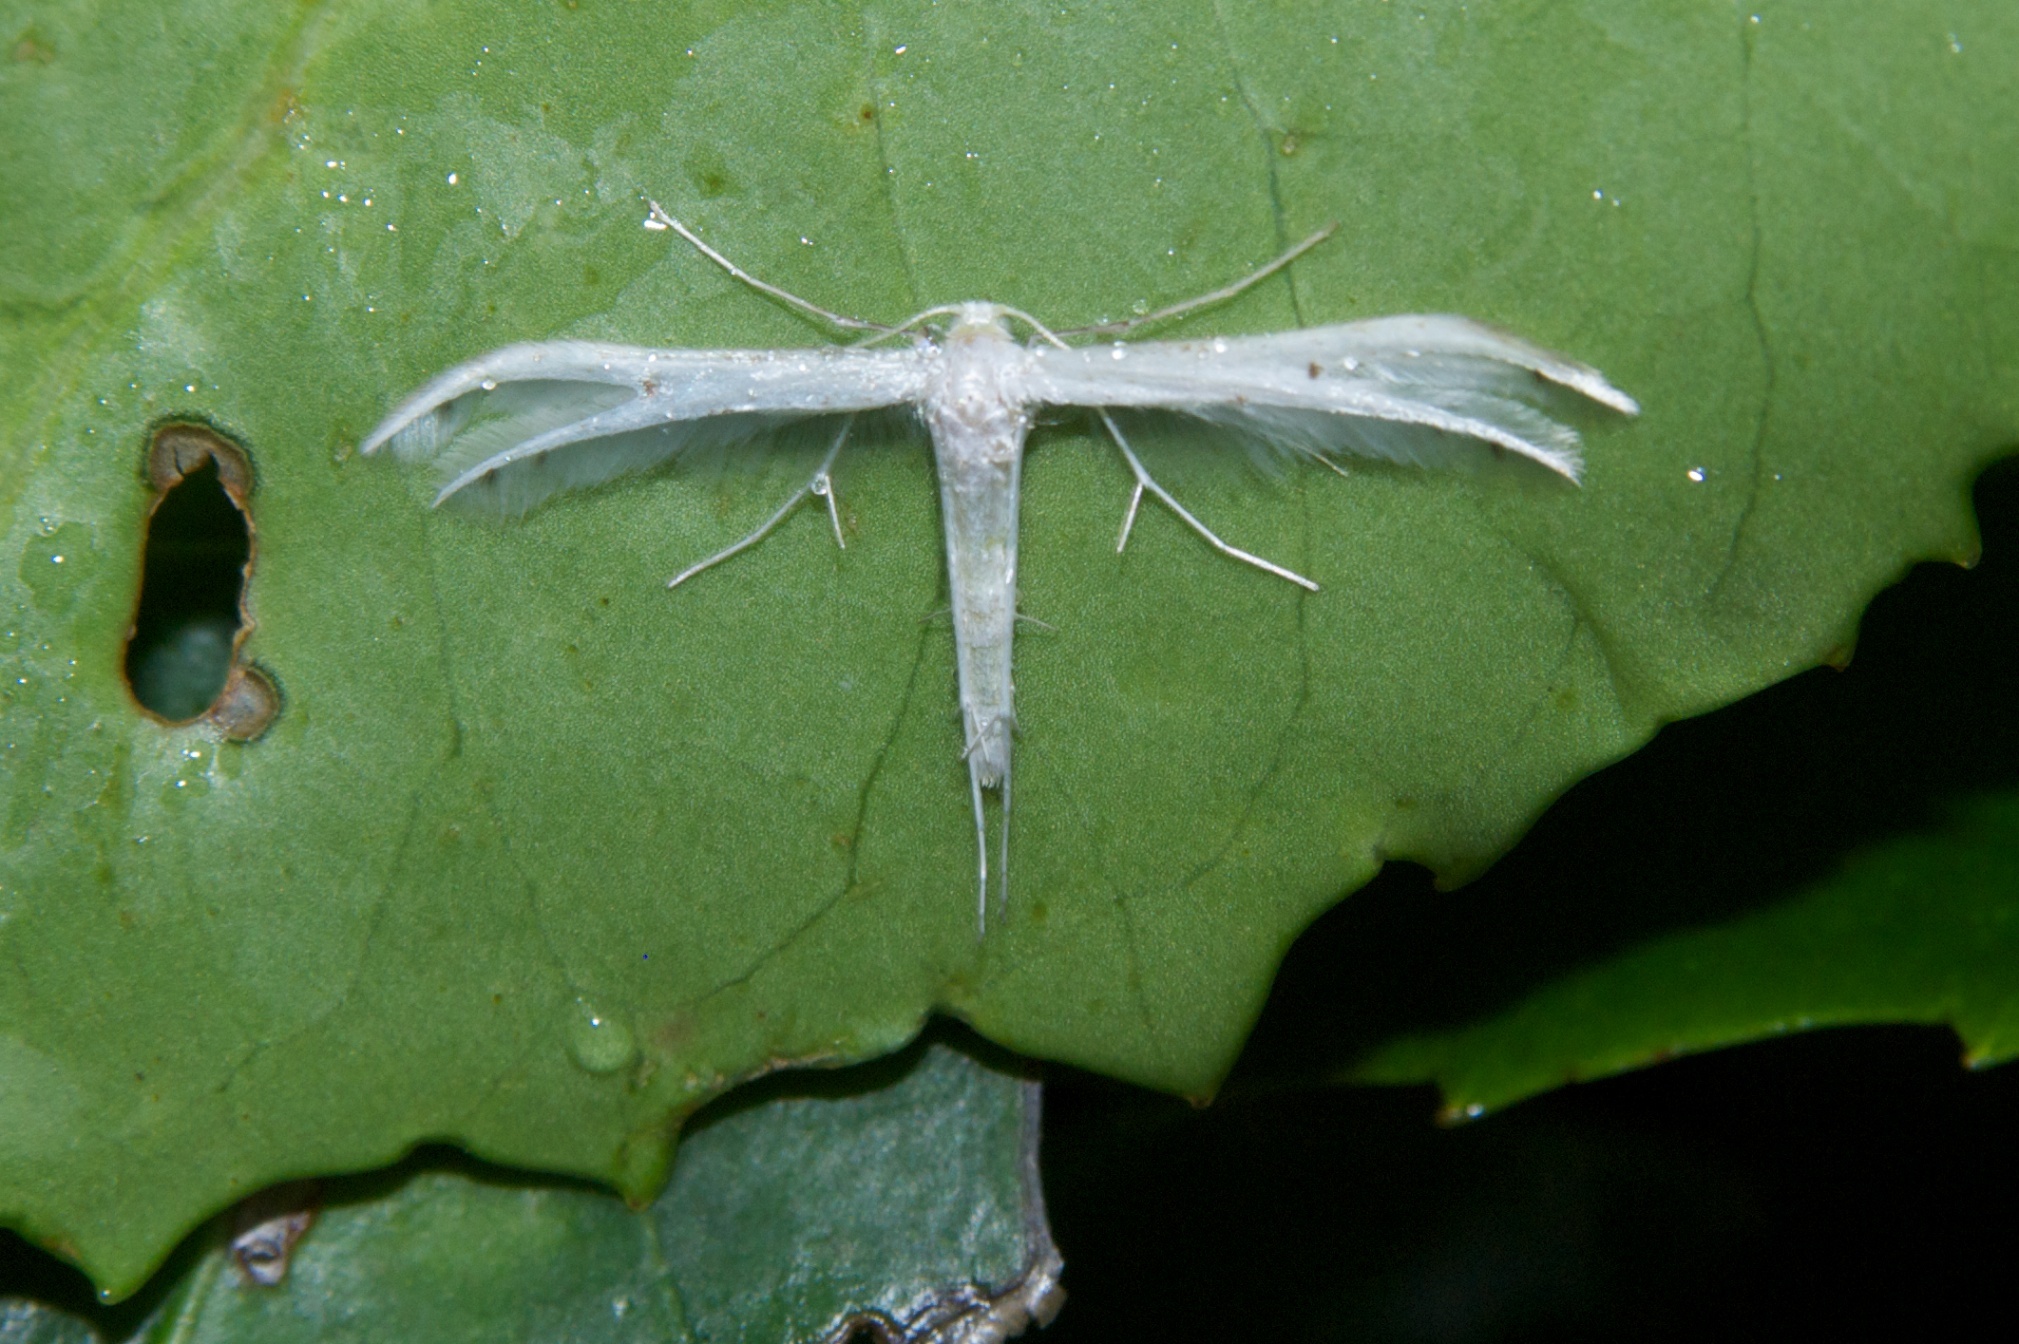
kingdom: Animalia
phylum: Arthropoda
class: Insecta
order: Lepidoptera
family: Pterophoridae
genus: Pterophorus
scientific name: Pterophorus monospilalis
